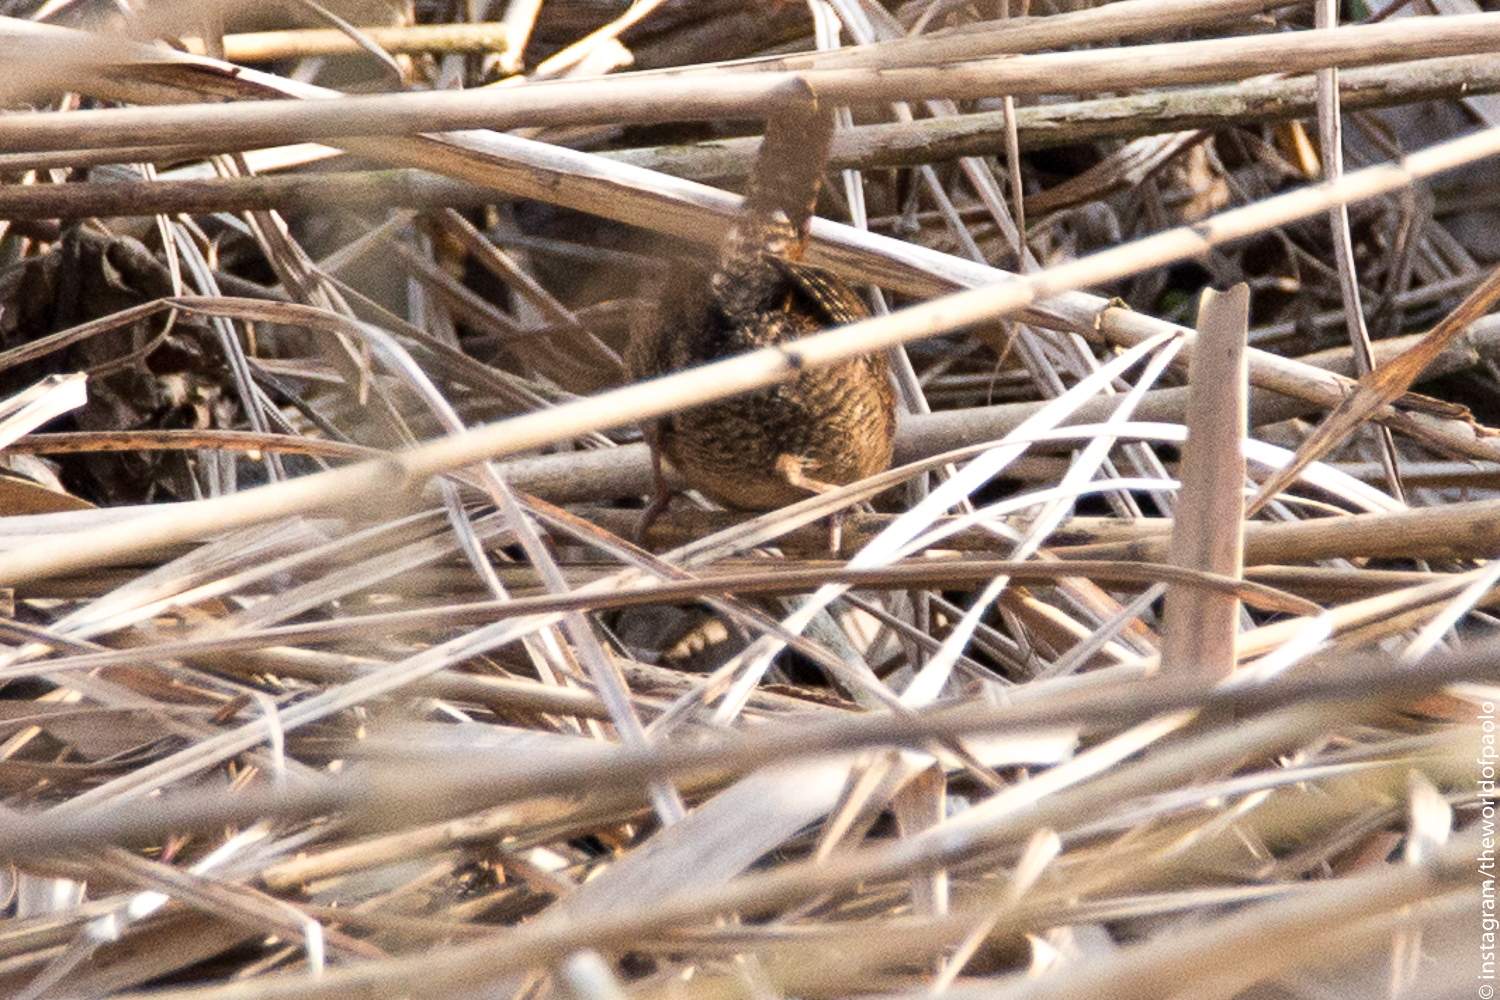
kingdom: Animalia
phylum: Chordata
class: Aves
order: Passeriformes
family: Troglodytidae
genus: Troglodytes
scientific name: Troglodytes troglodytes
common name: Eurasian wren
